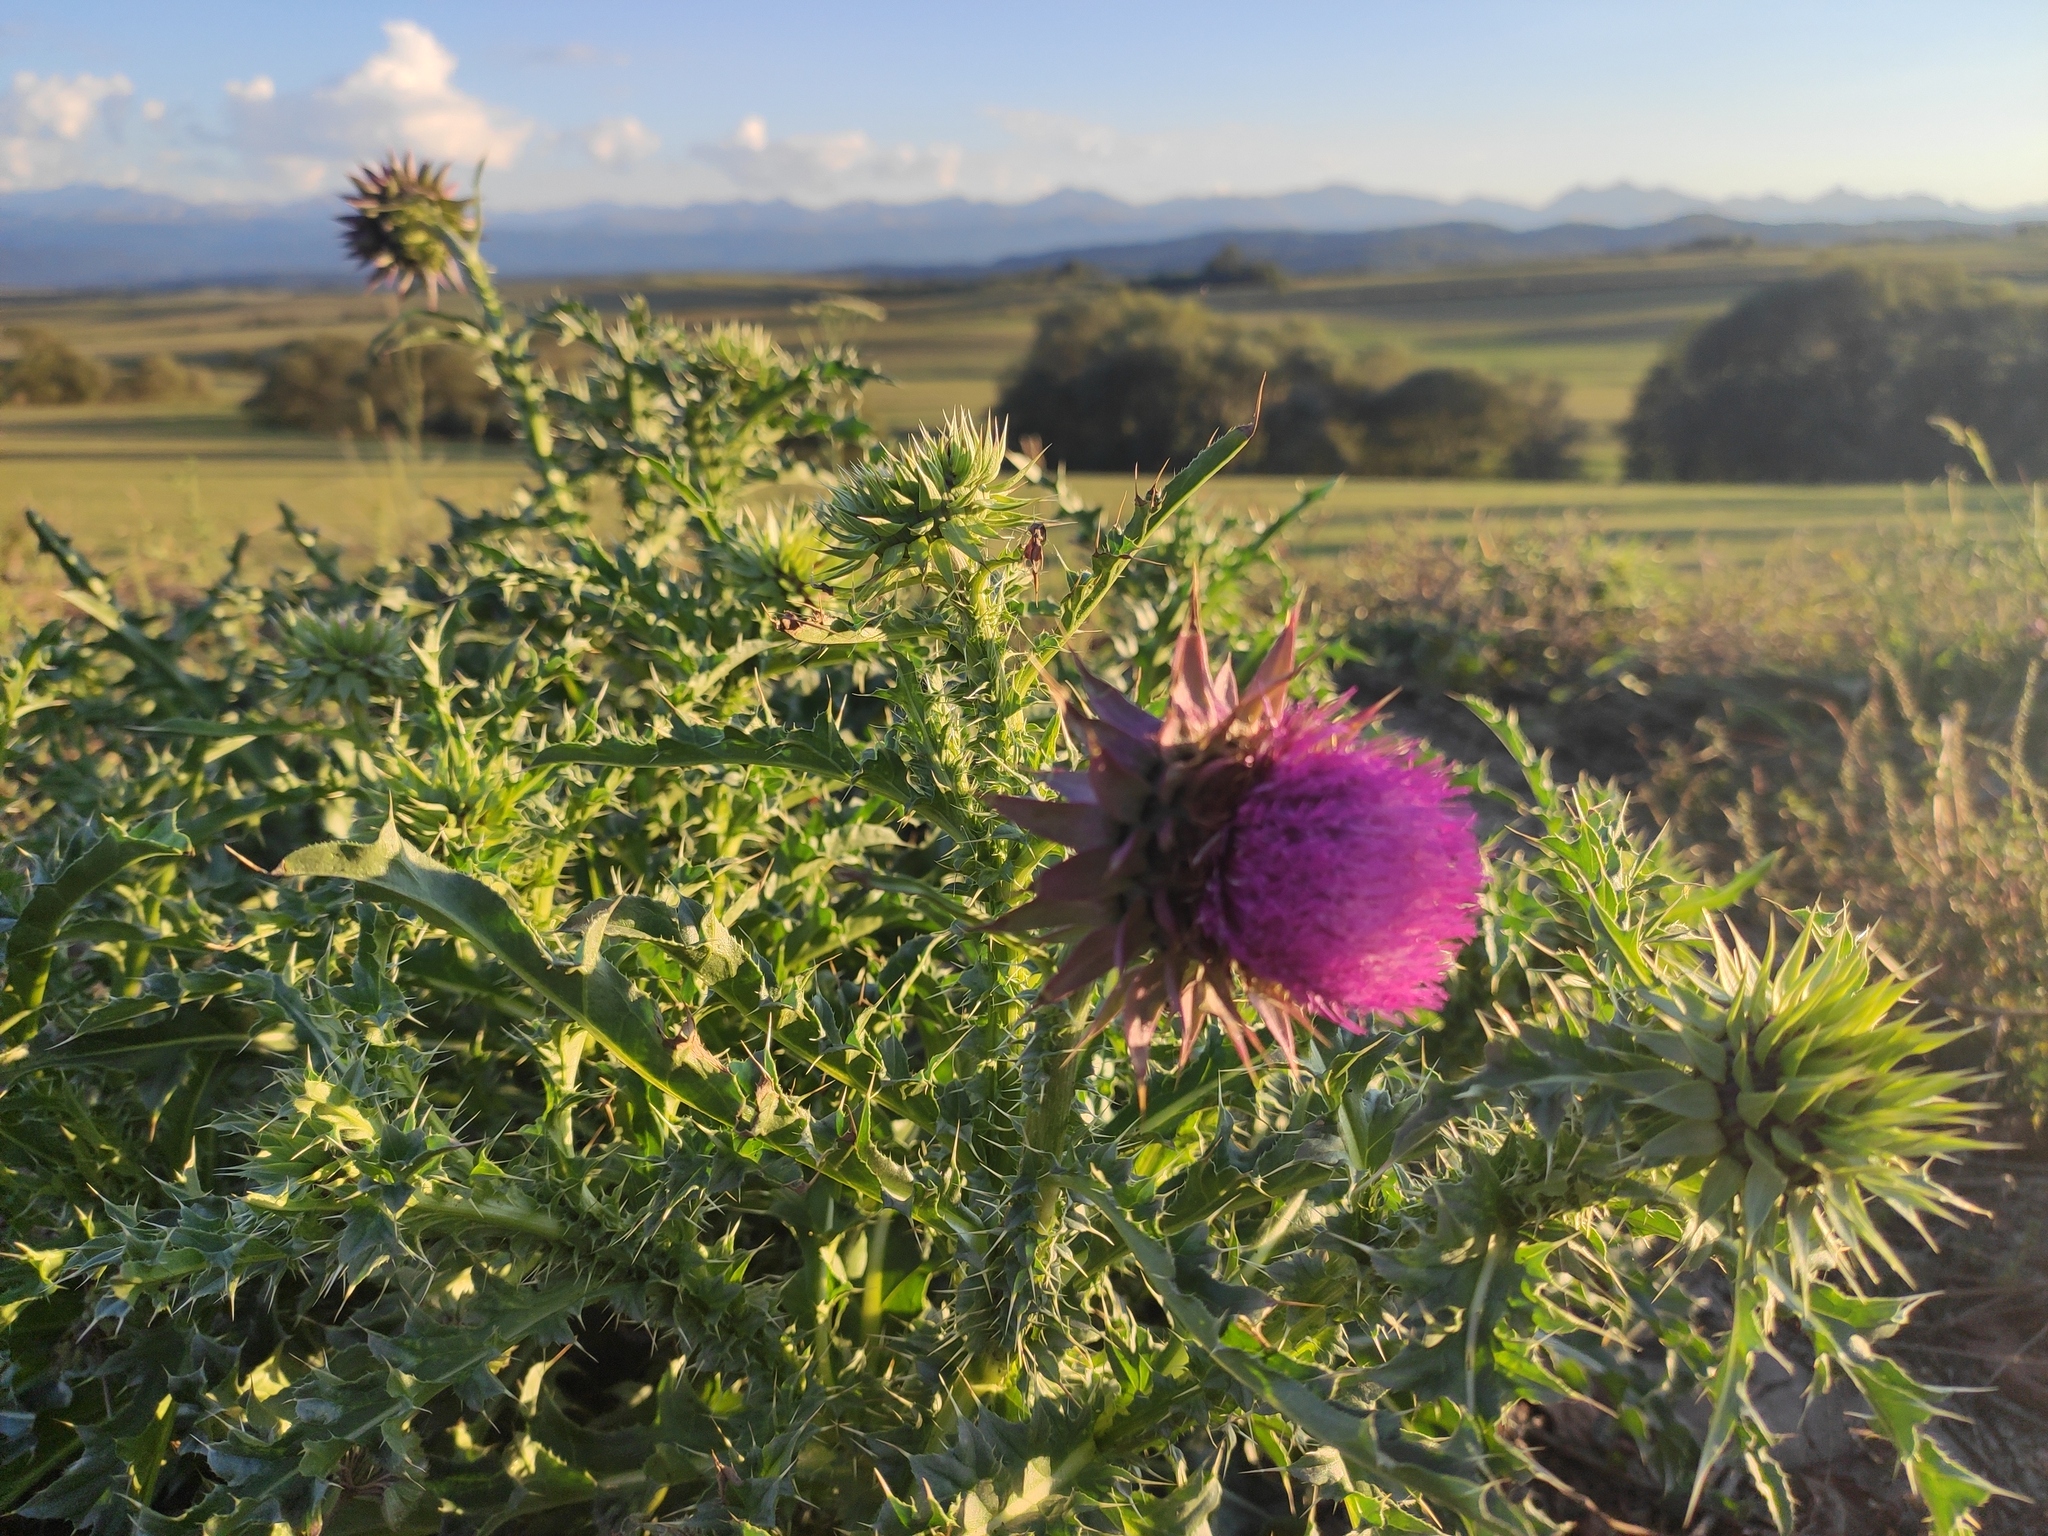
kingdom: Plantae
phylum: Tracheophyta
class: Magnoliopsida
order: Asterales
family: Asteraceae
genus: Carduus
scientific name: Carduus nutans
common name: Musk thistle
